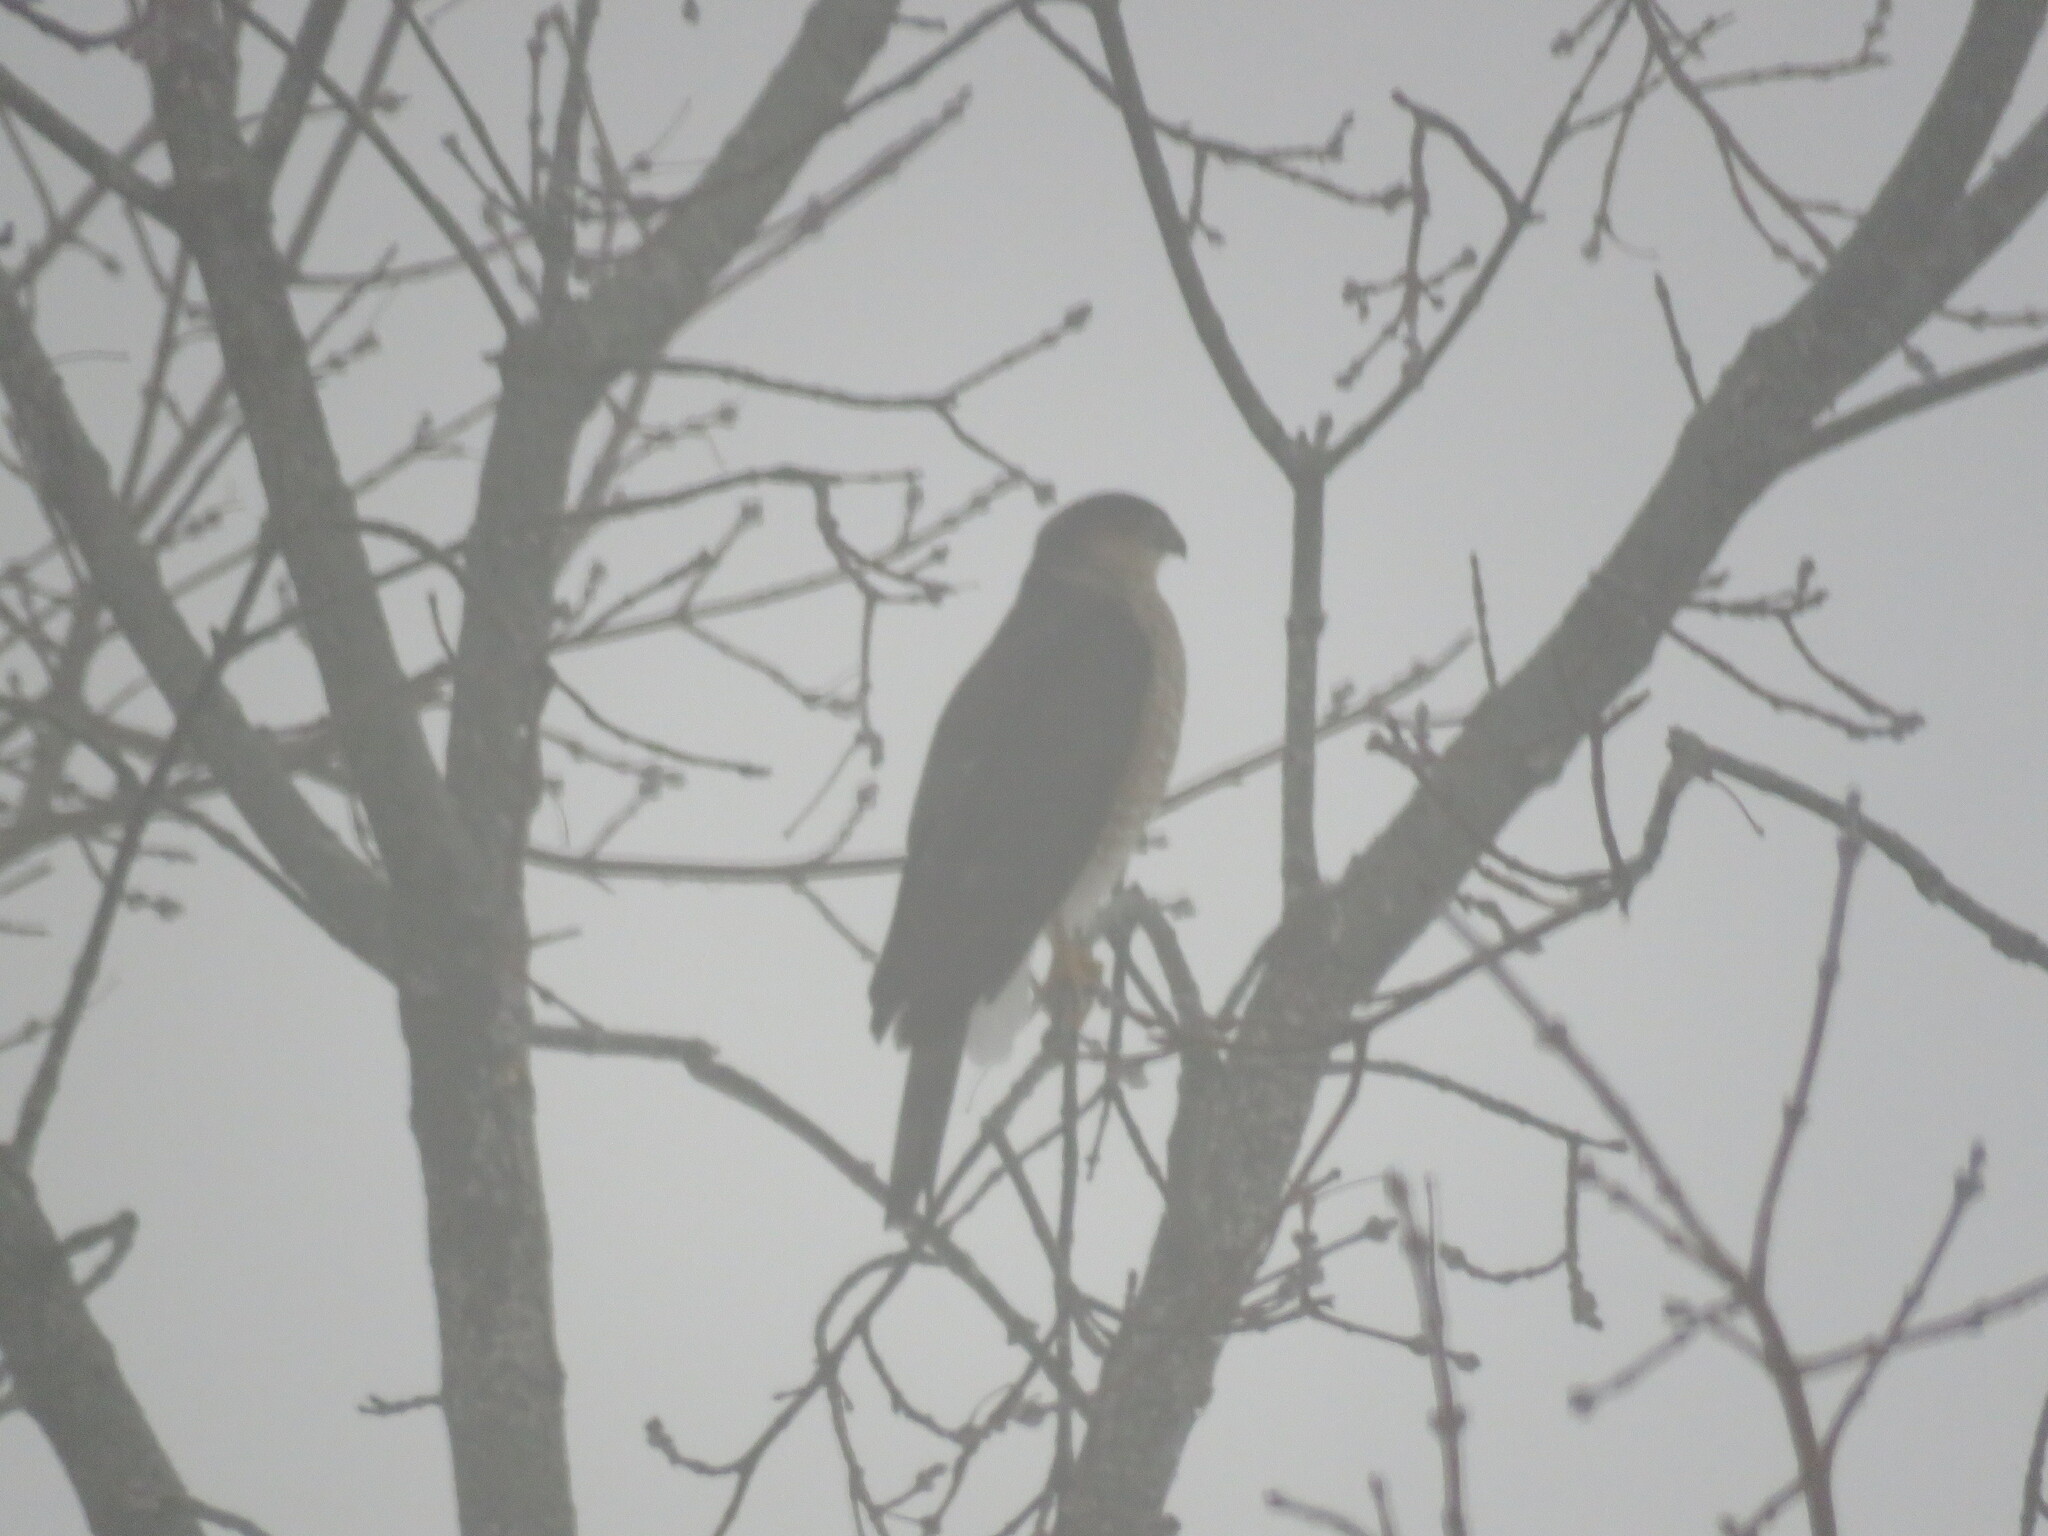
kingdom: Animalia
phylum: Chordata
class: Aves
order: Accipitriformes
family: Accipitridae
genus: Accipiter
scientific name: Accipiter striatus
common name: Sharp-shinned hawk
